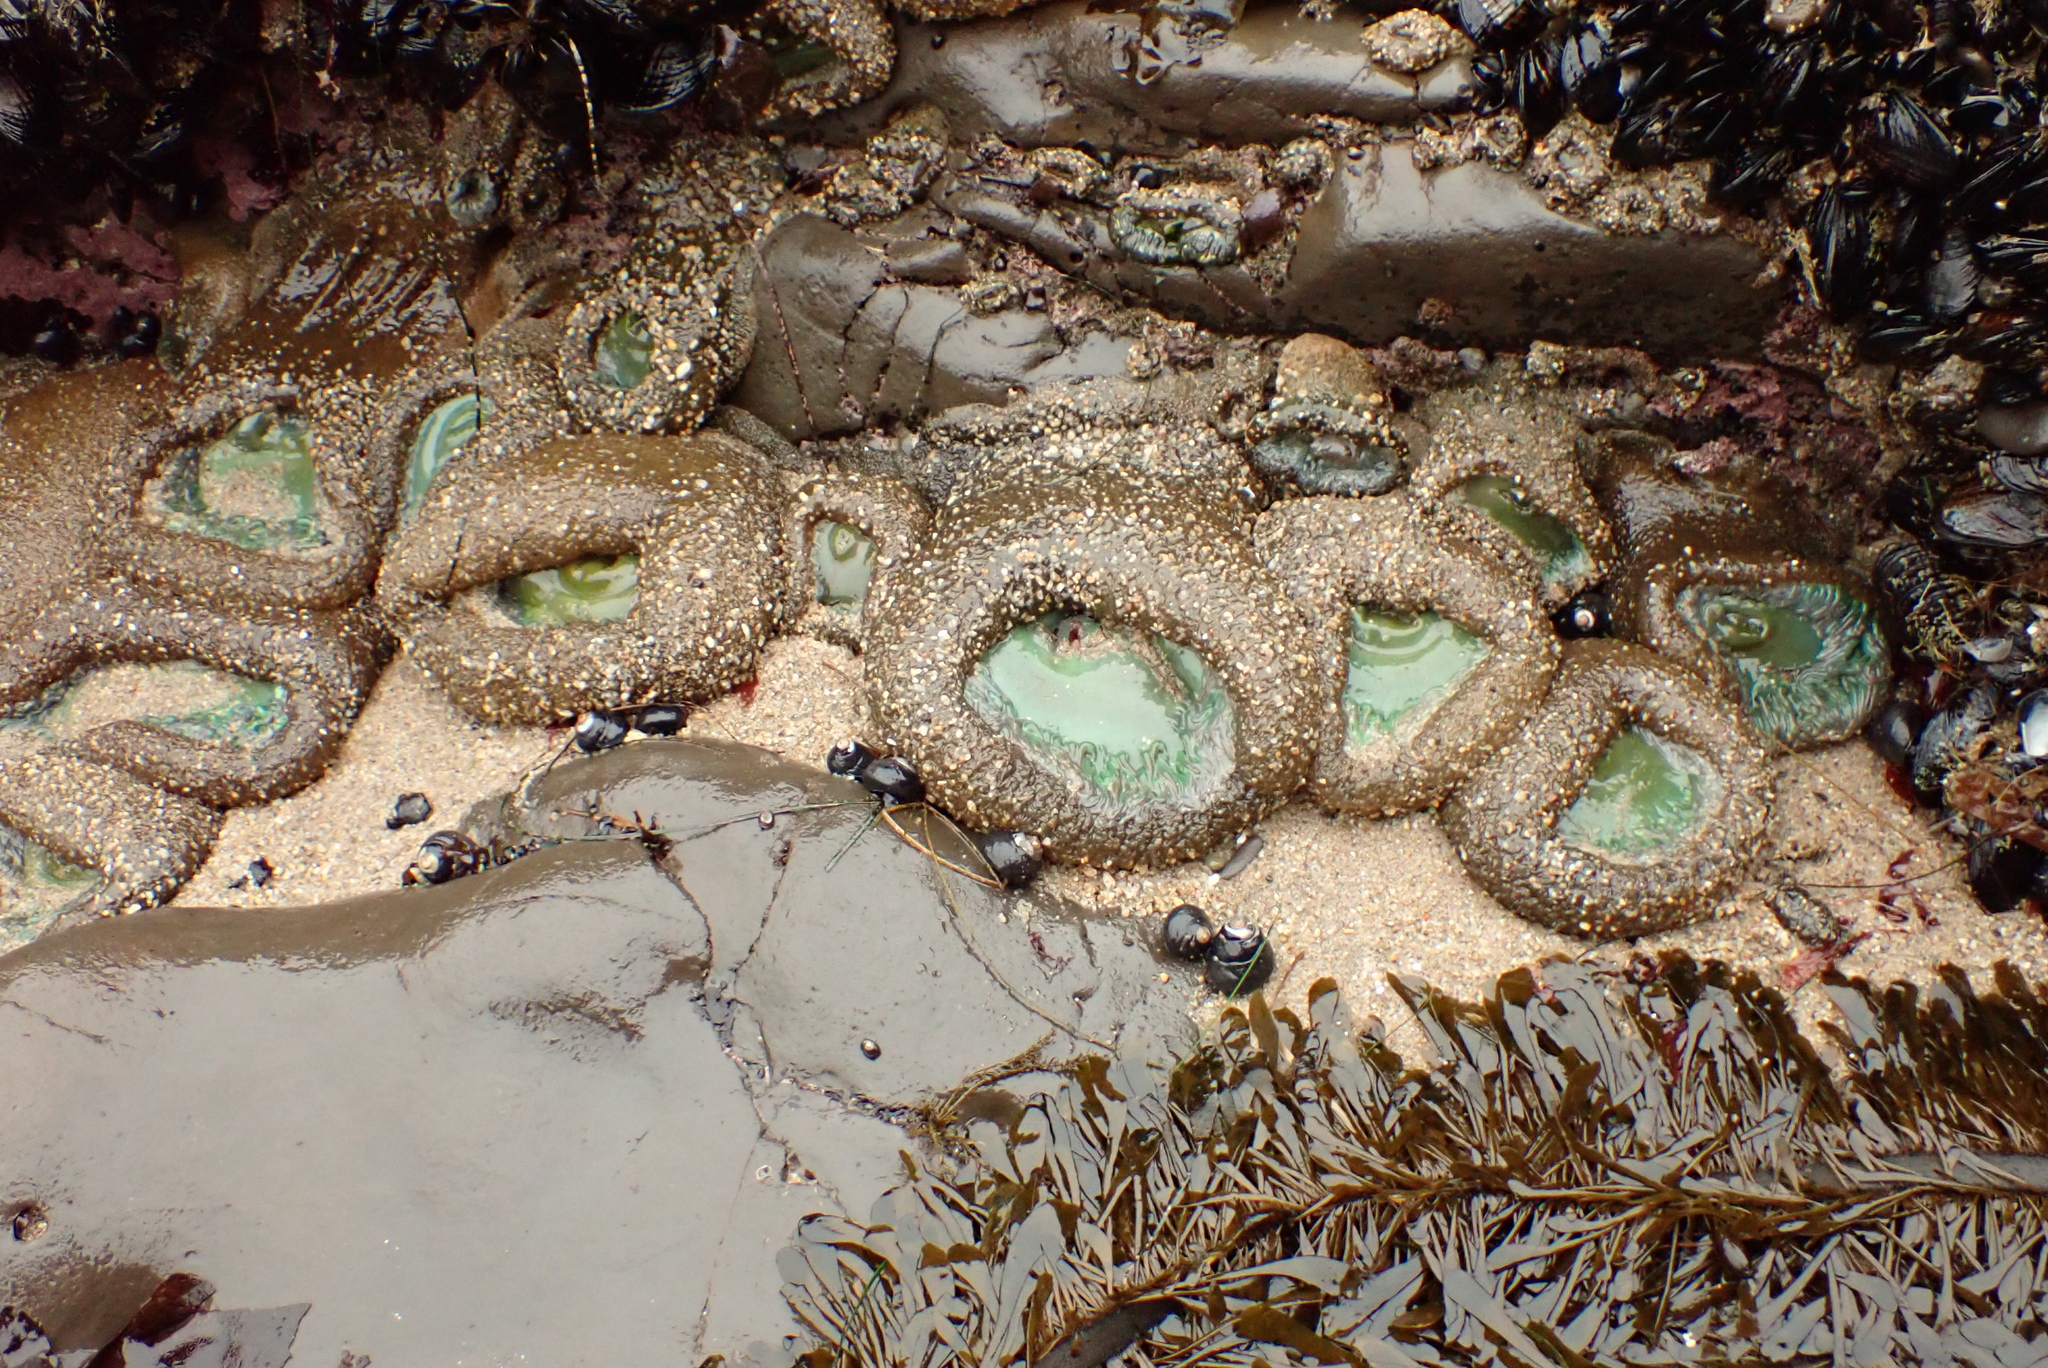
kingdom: Animalia
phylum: Cnidaria
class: Anthozoa
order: Actiniaria
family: Actiniidae
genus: Anthopleura
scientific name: Anthopleura xanthogrammica
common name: Giant green anemone
